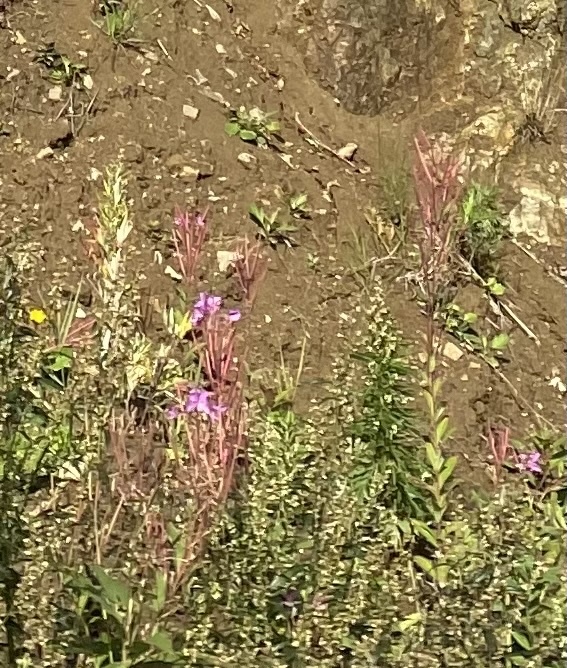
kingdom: Plantae
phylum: Tracheophyta
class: Magnoliopsida
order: Myrtales
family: Onagraceae
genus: Chamaenerion
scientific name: Chamaenerion angustifolium
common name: Fireweed
